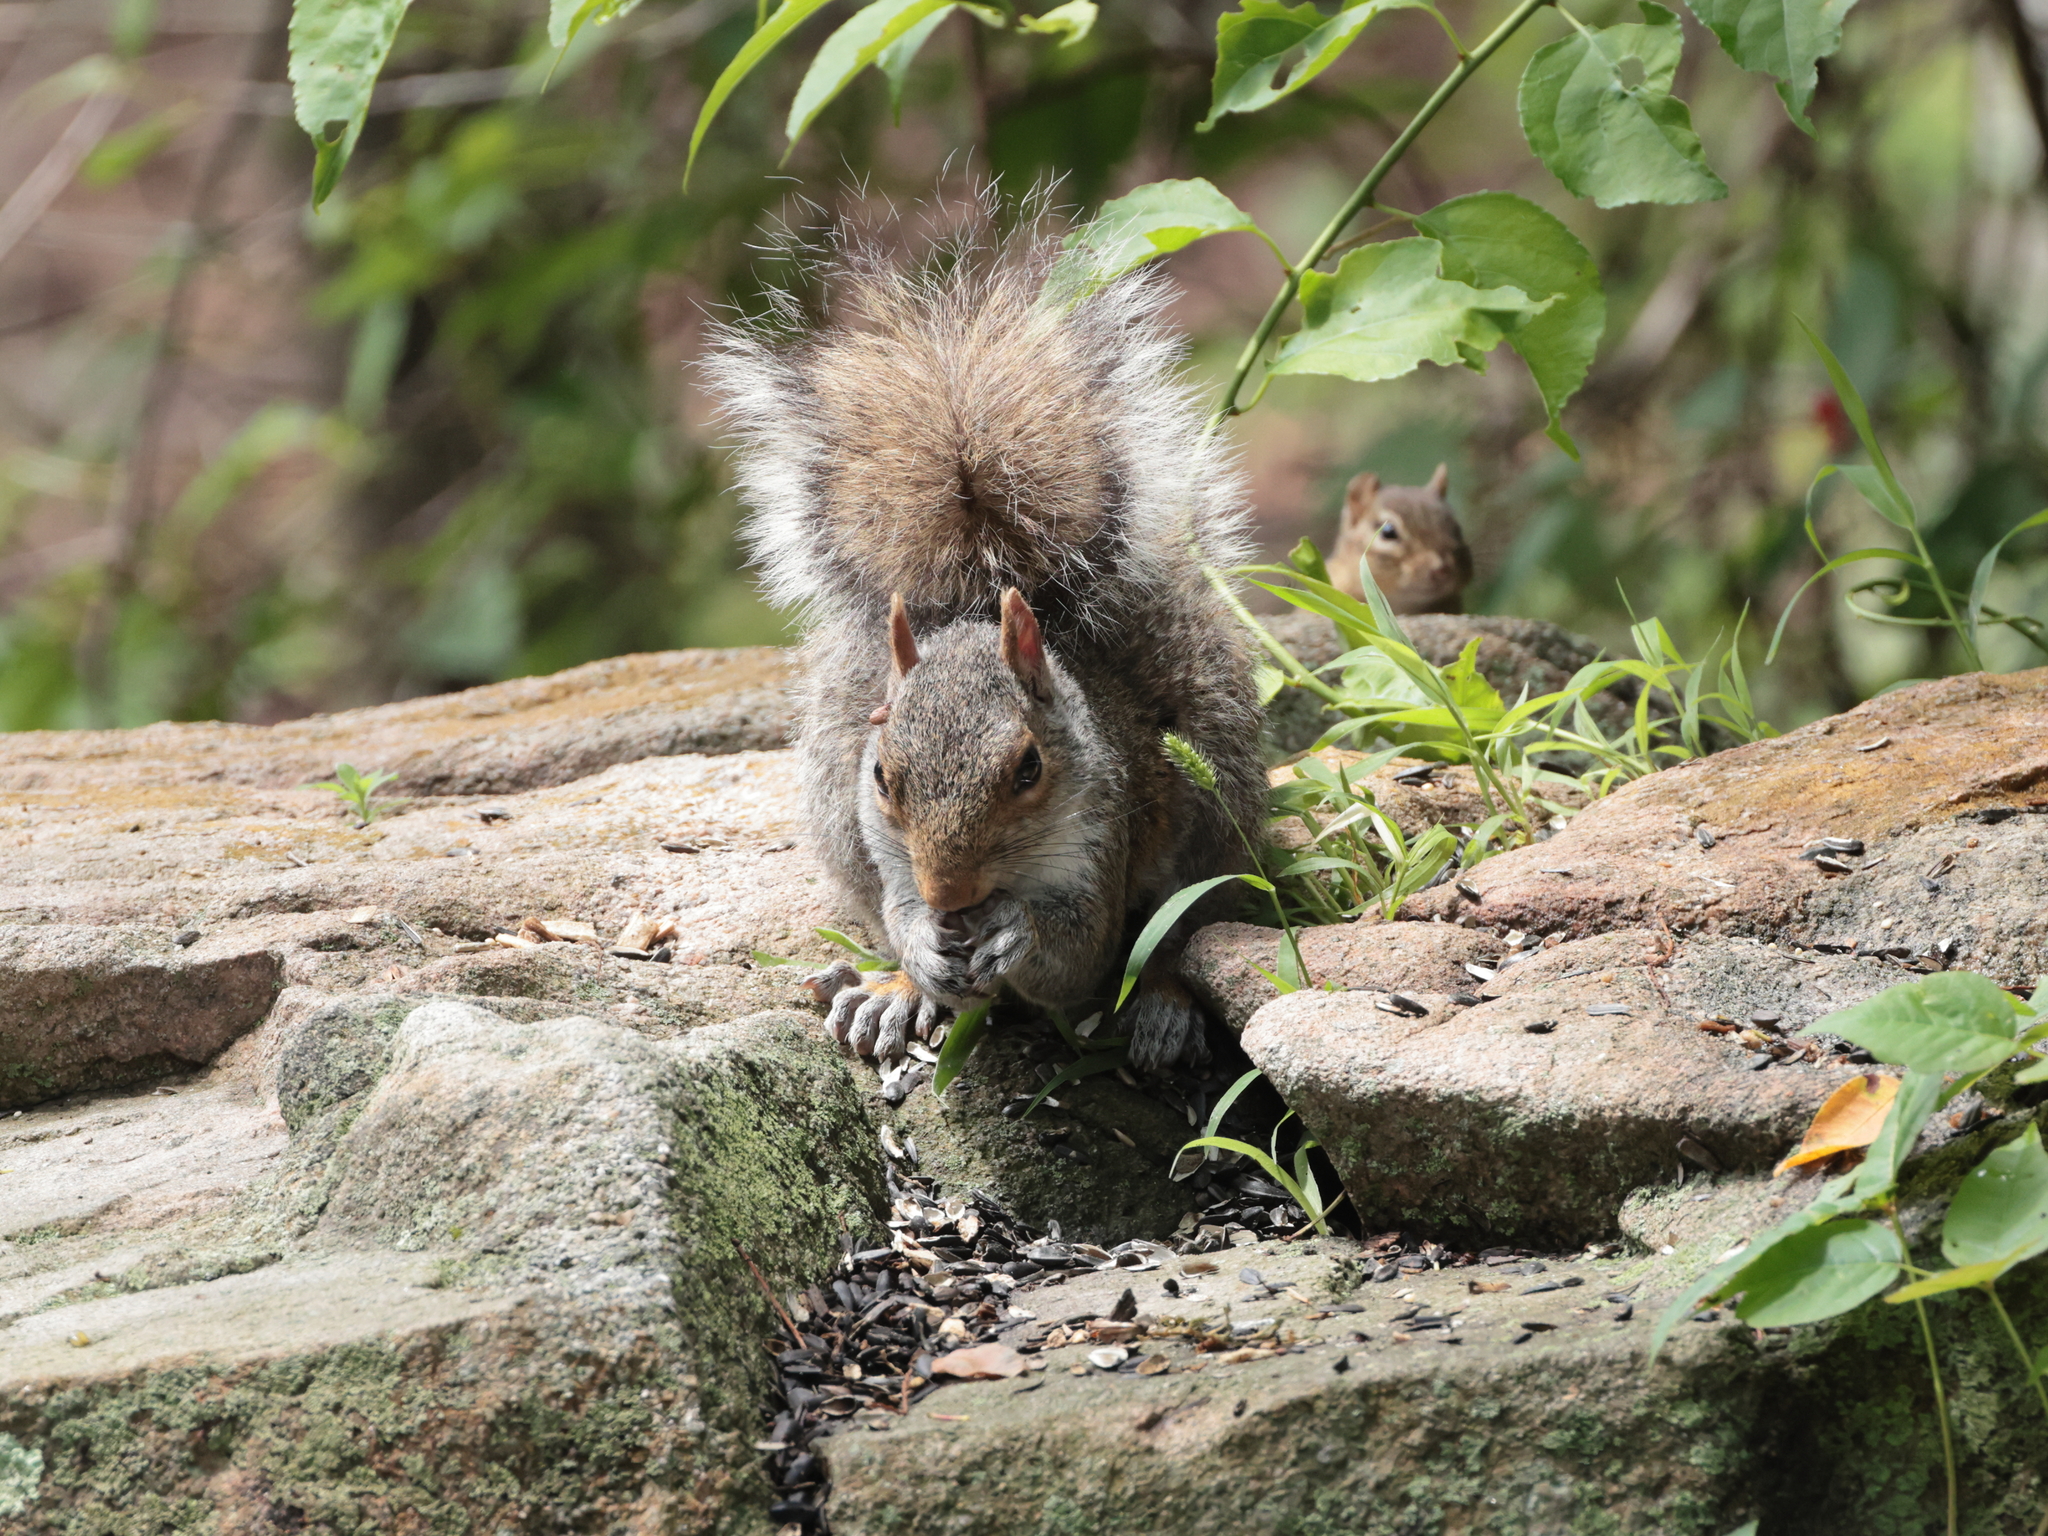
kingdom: Animalia
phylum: Chordata
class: Mammalia
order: Rodentia
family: Sciuridae
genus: Sciurus
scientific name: Sciurus carolinensis
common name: Eastern gray squirrel
